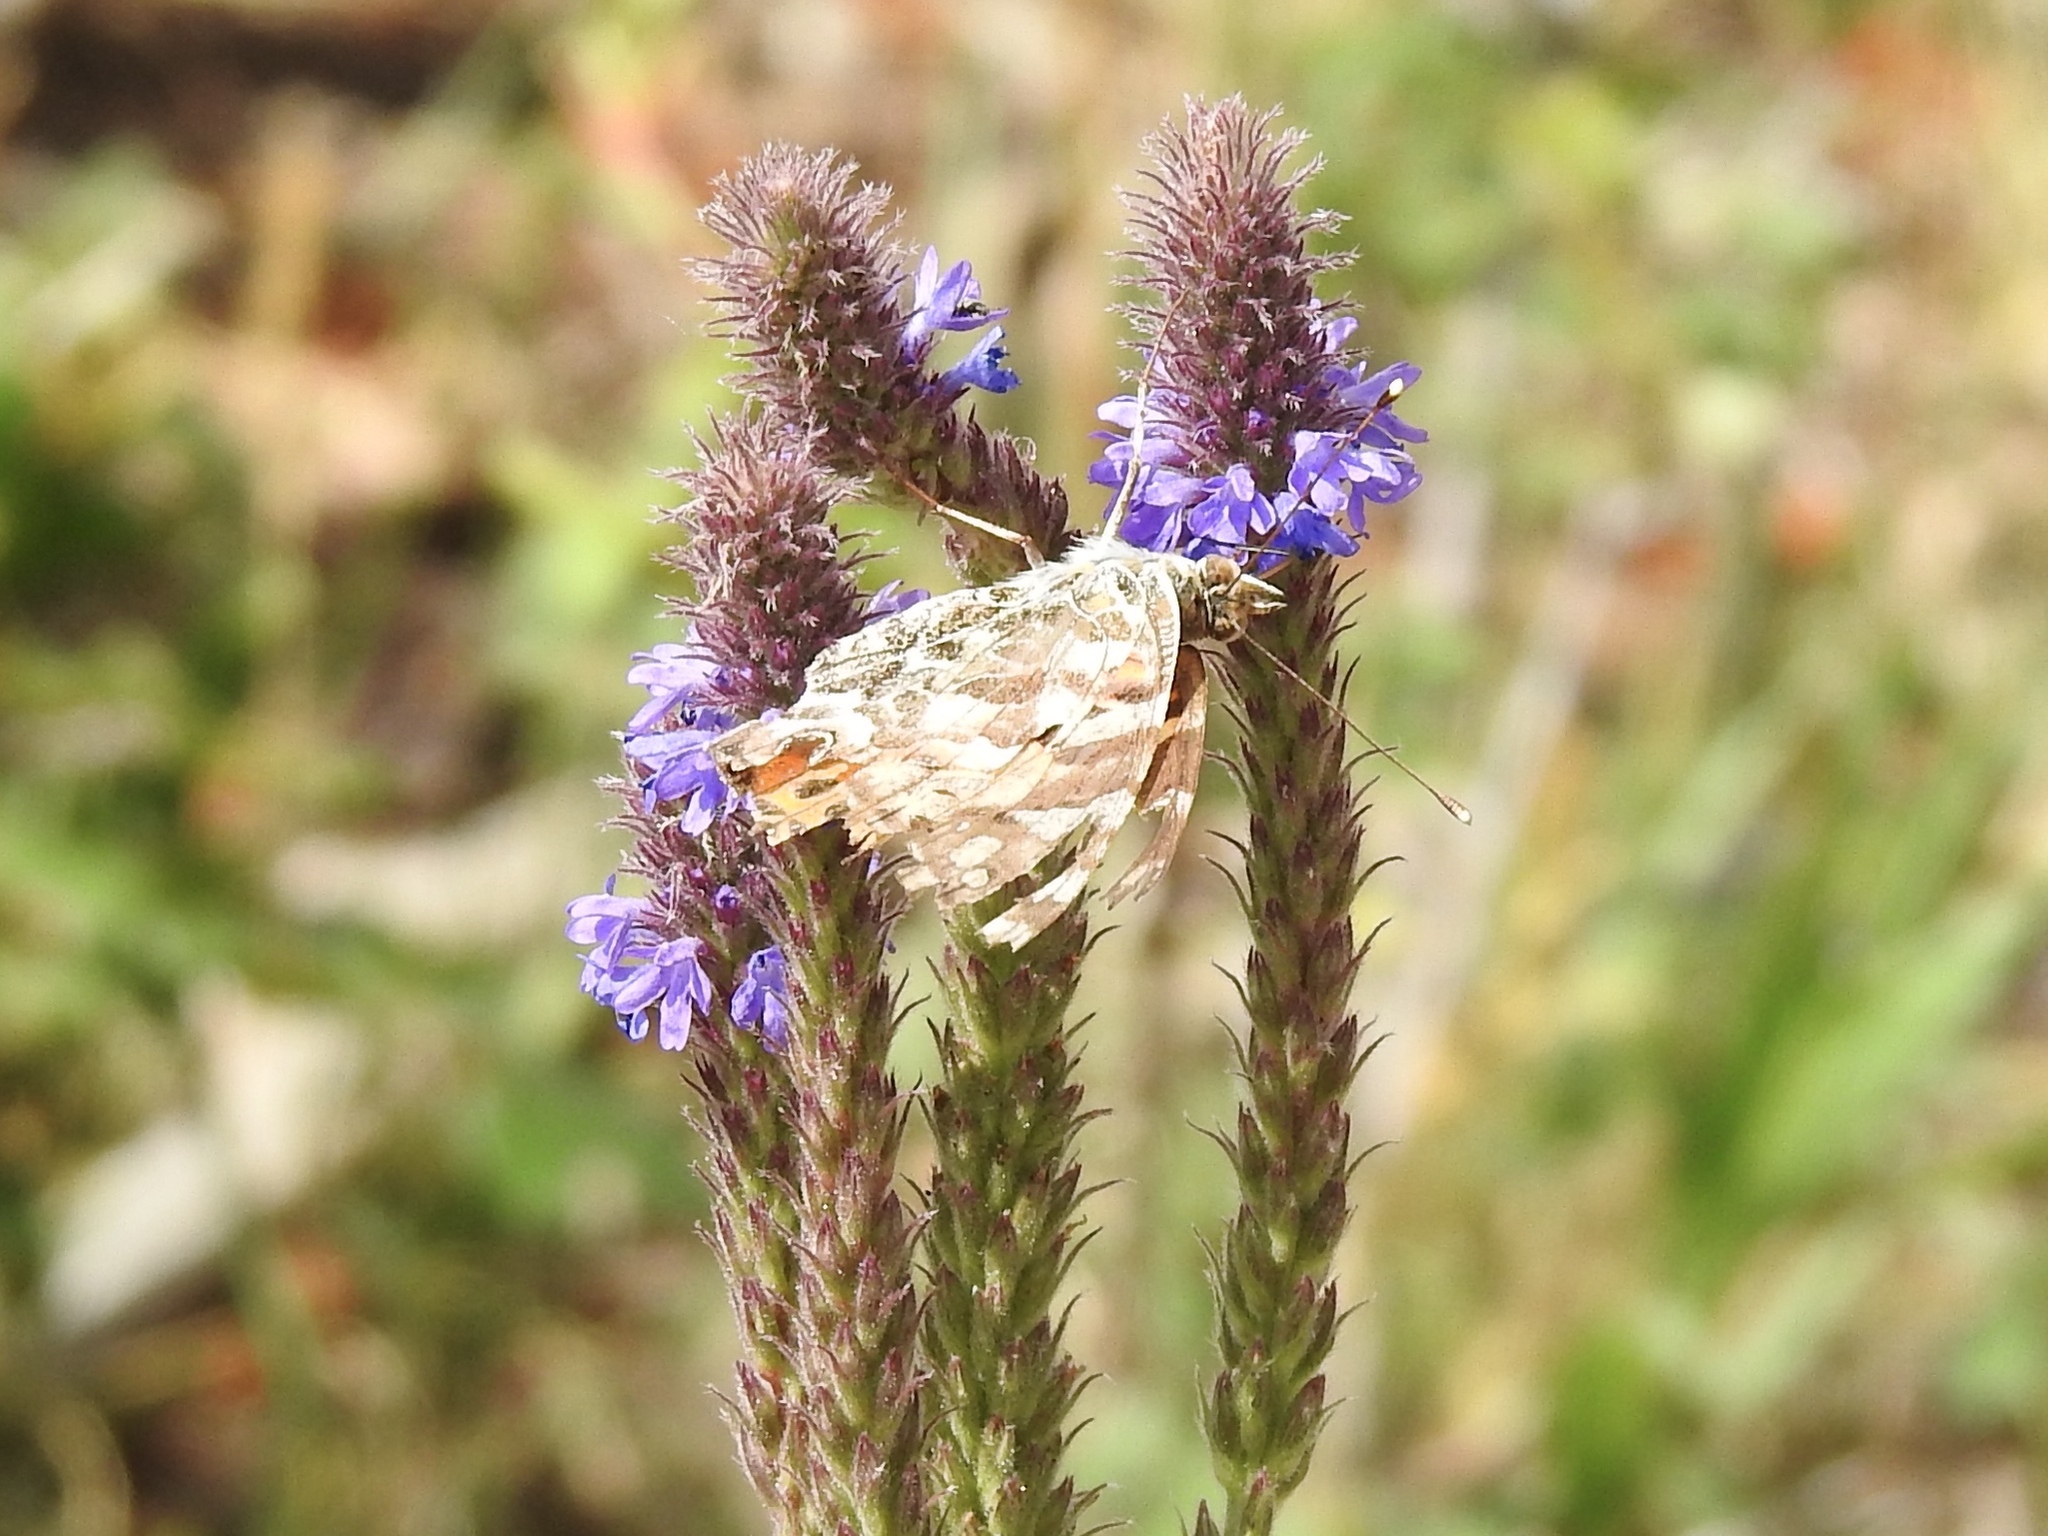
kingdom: Animalia
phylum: Arthropoda
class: Insecta
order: Lepidoptera
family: Nymphalidae
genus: Vanessa
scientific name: Vanessa cardui
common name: Painted lady
